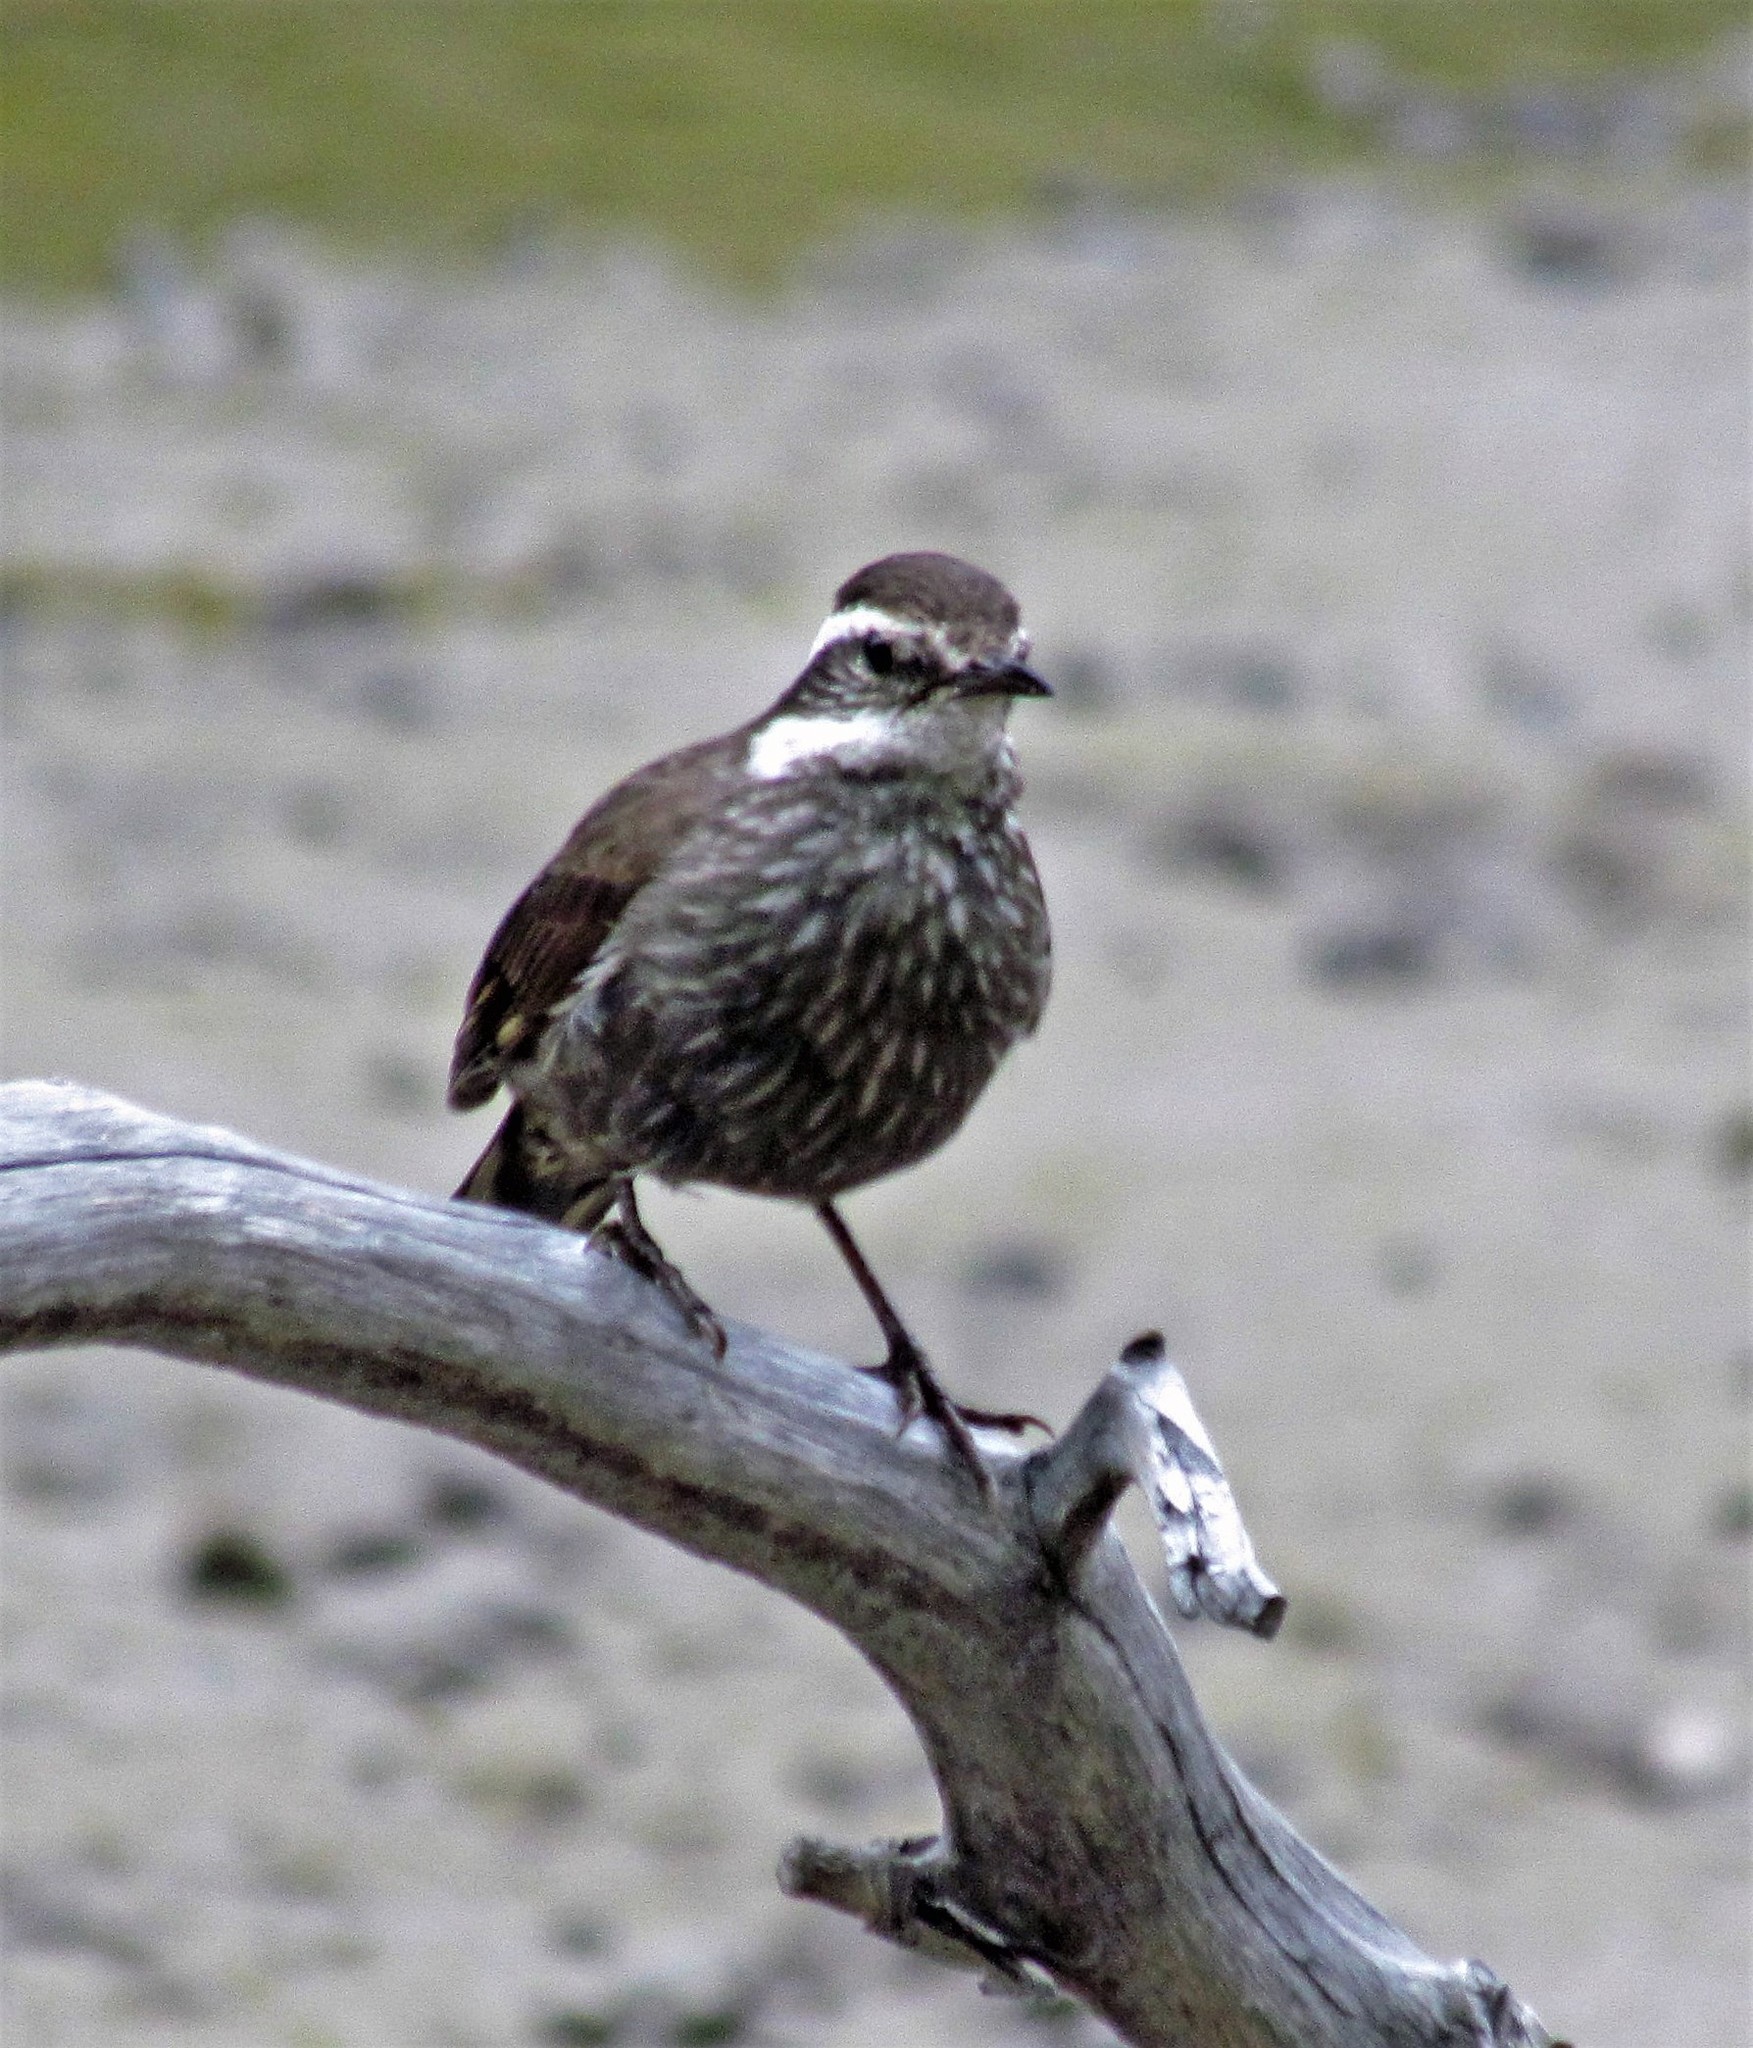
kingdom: Animalia
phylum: Chordata
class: Aves
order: Passeriformes
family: Furnariidae
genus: Cinclodes
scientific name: Cinclodes patagonicus
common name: Dark-bellied cinclodes
